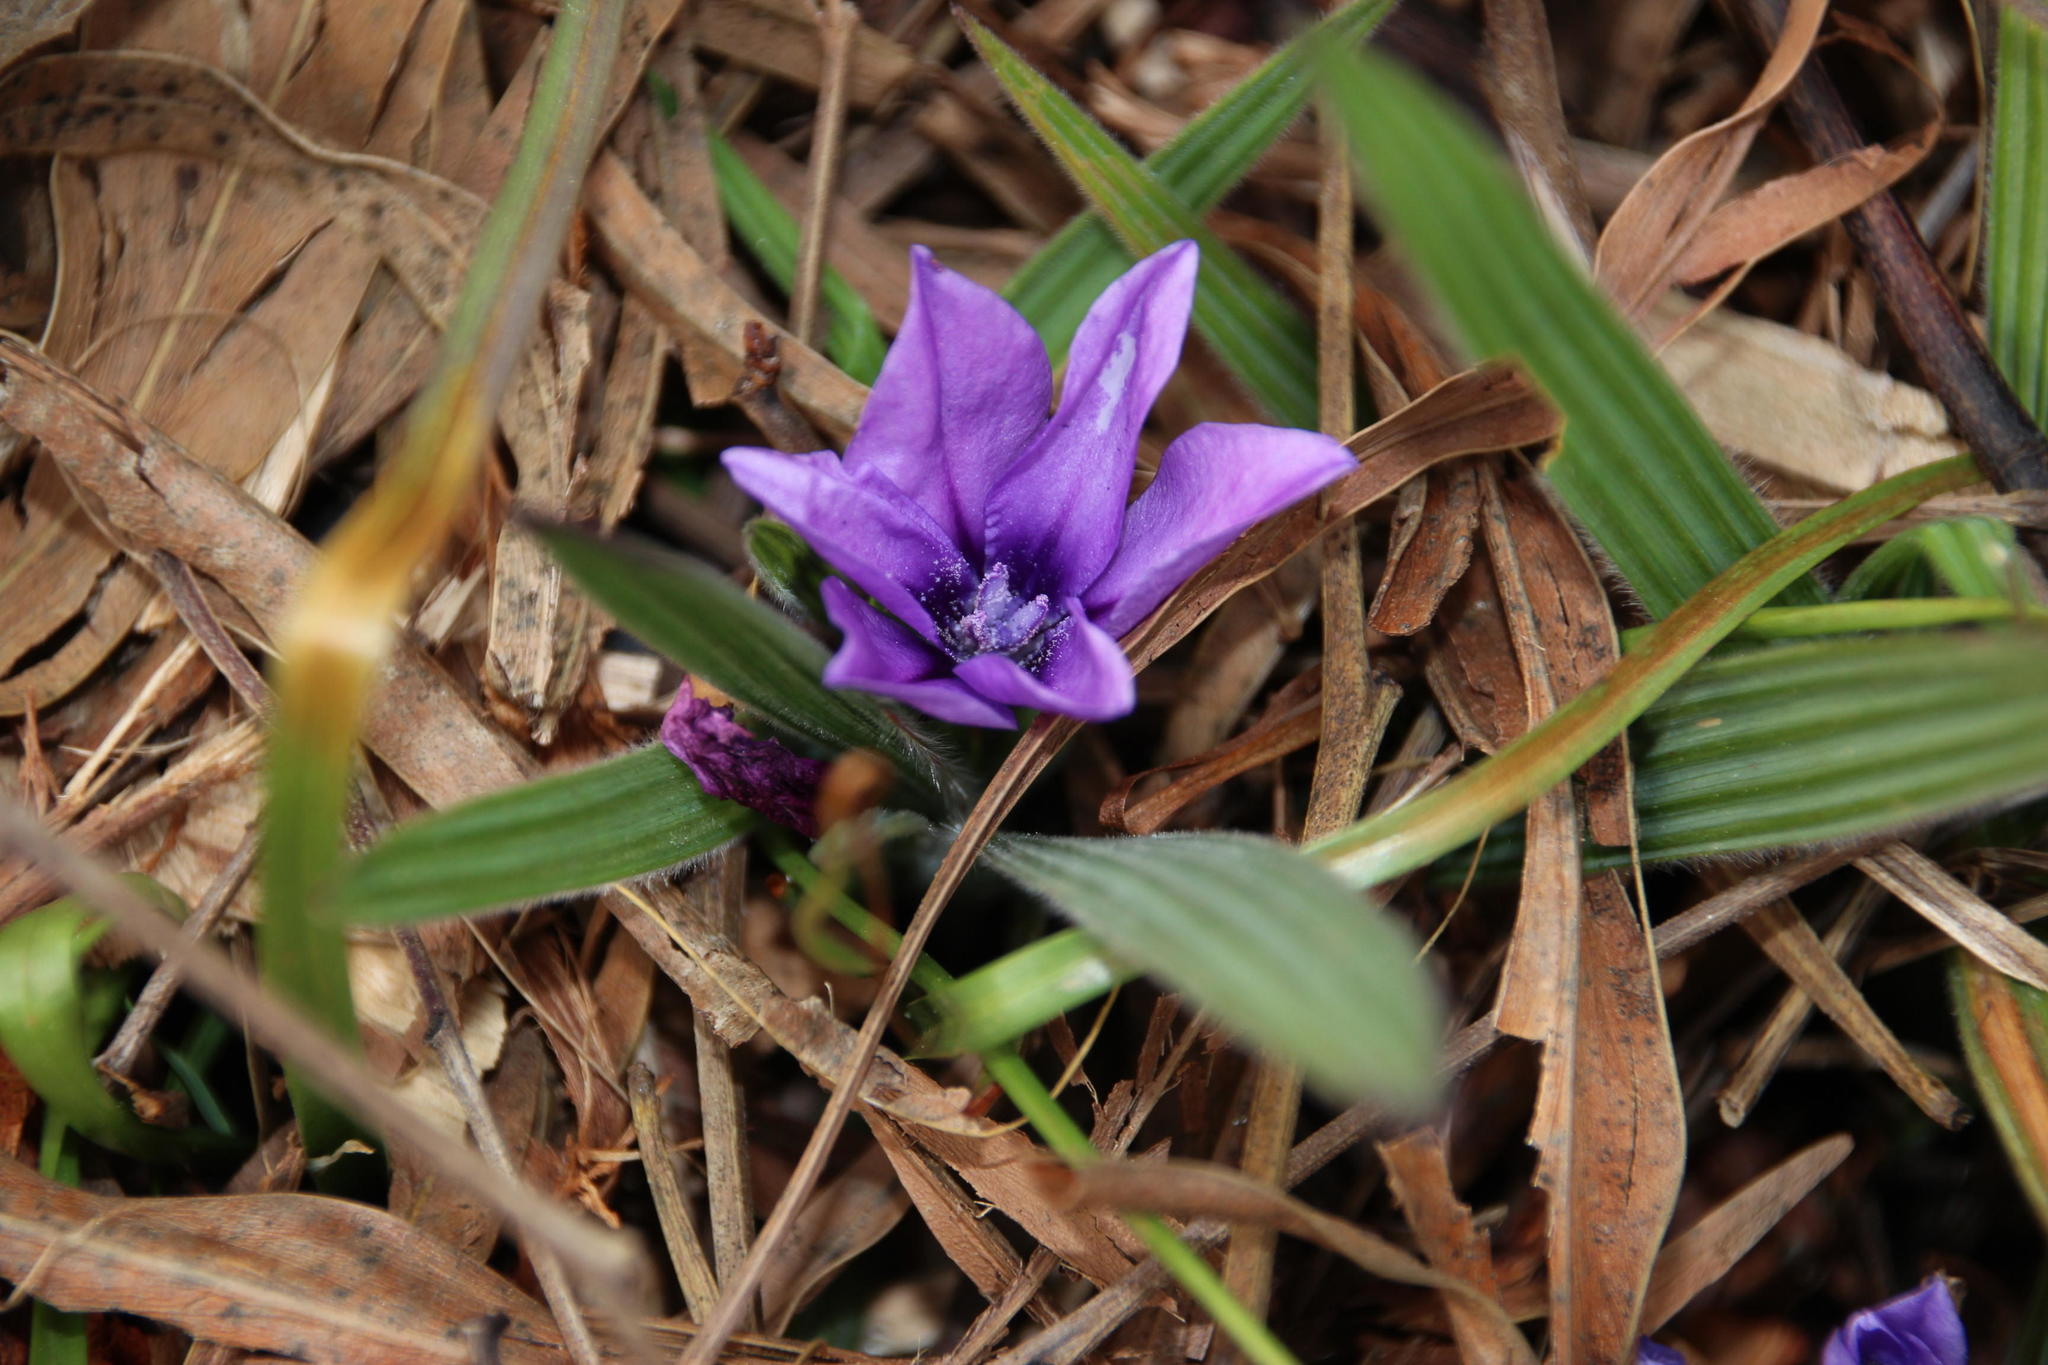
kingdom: Plantae
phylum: Tracheophyta
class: Liliopsida
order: Asparagales
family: Iridaceae
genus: Babiana
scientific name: Babiana villosula
